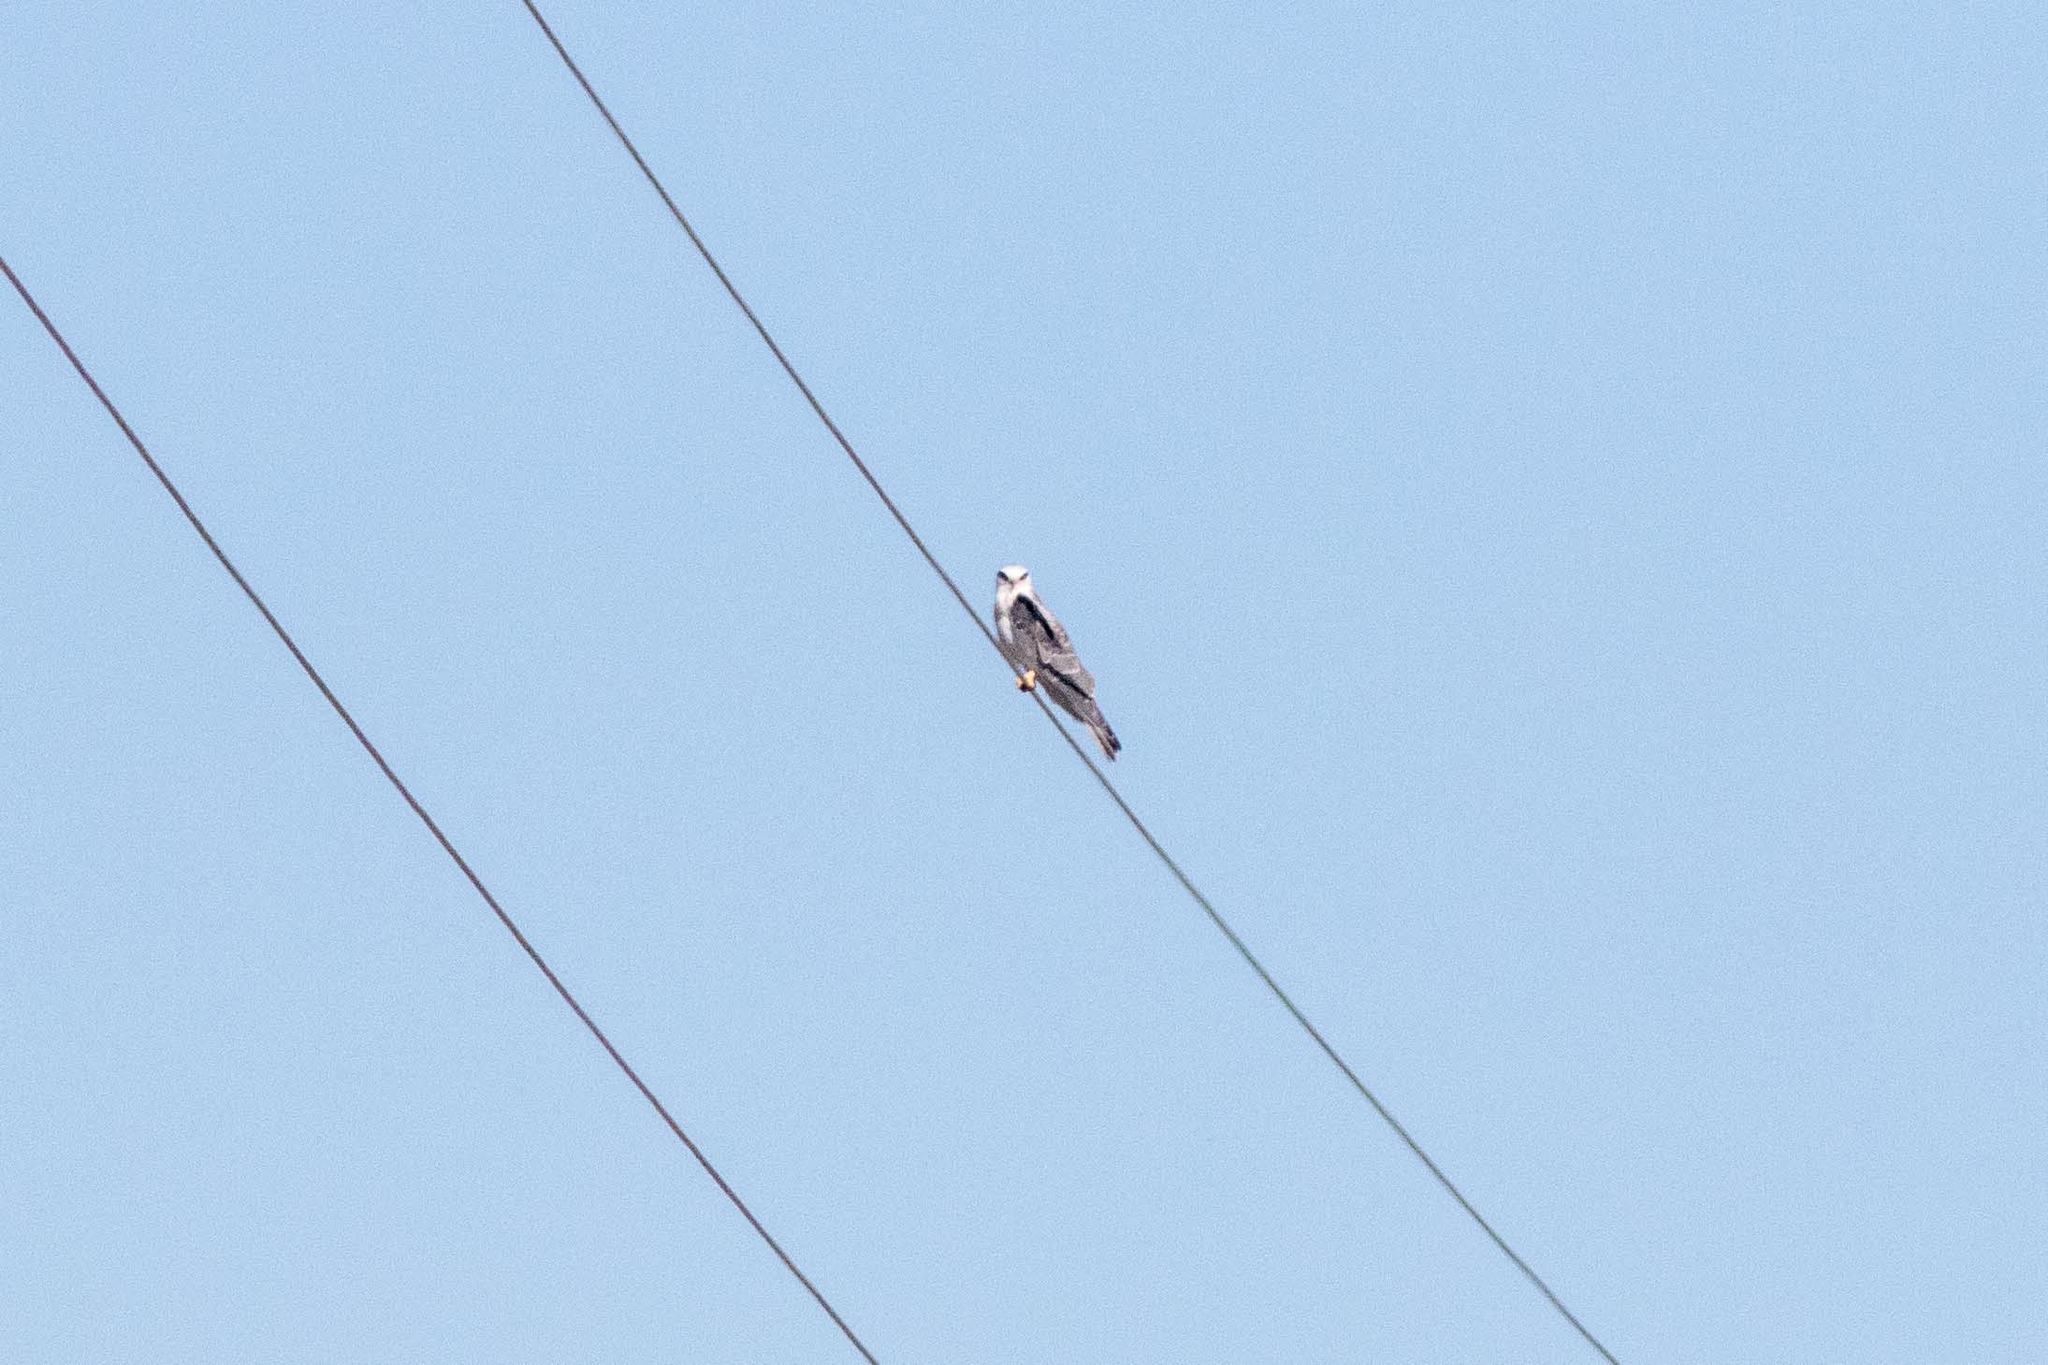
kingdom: Animalia
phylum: Chordata
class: Aves
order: Accipitriformes
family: Accipitridae
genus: Elanus
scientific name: Elanus leucurus
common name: White-tailed kite
